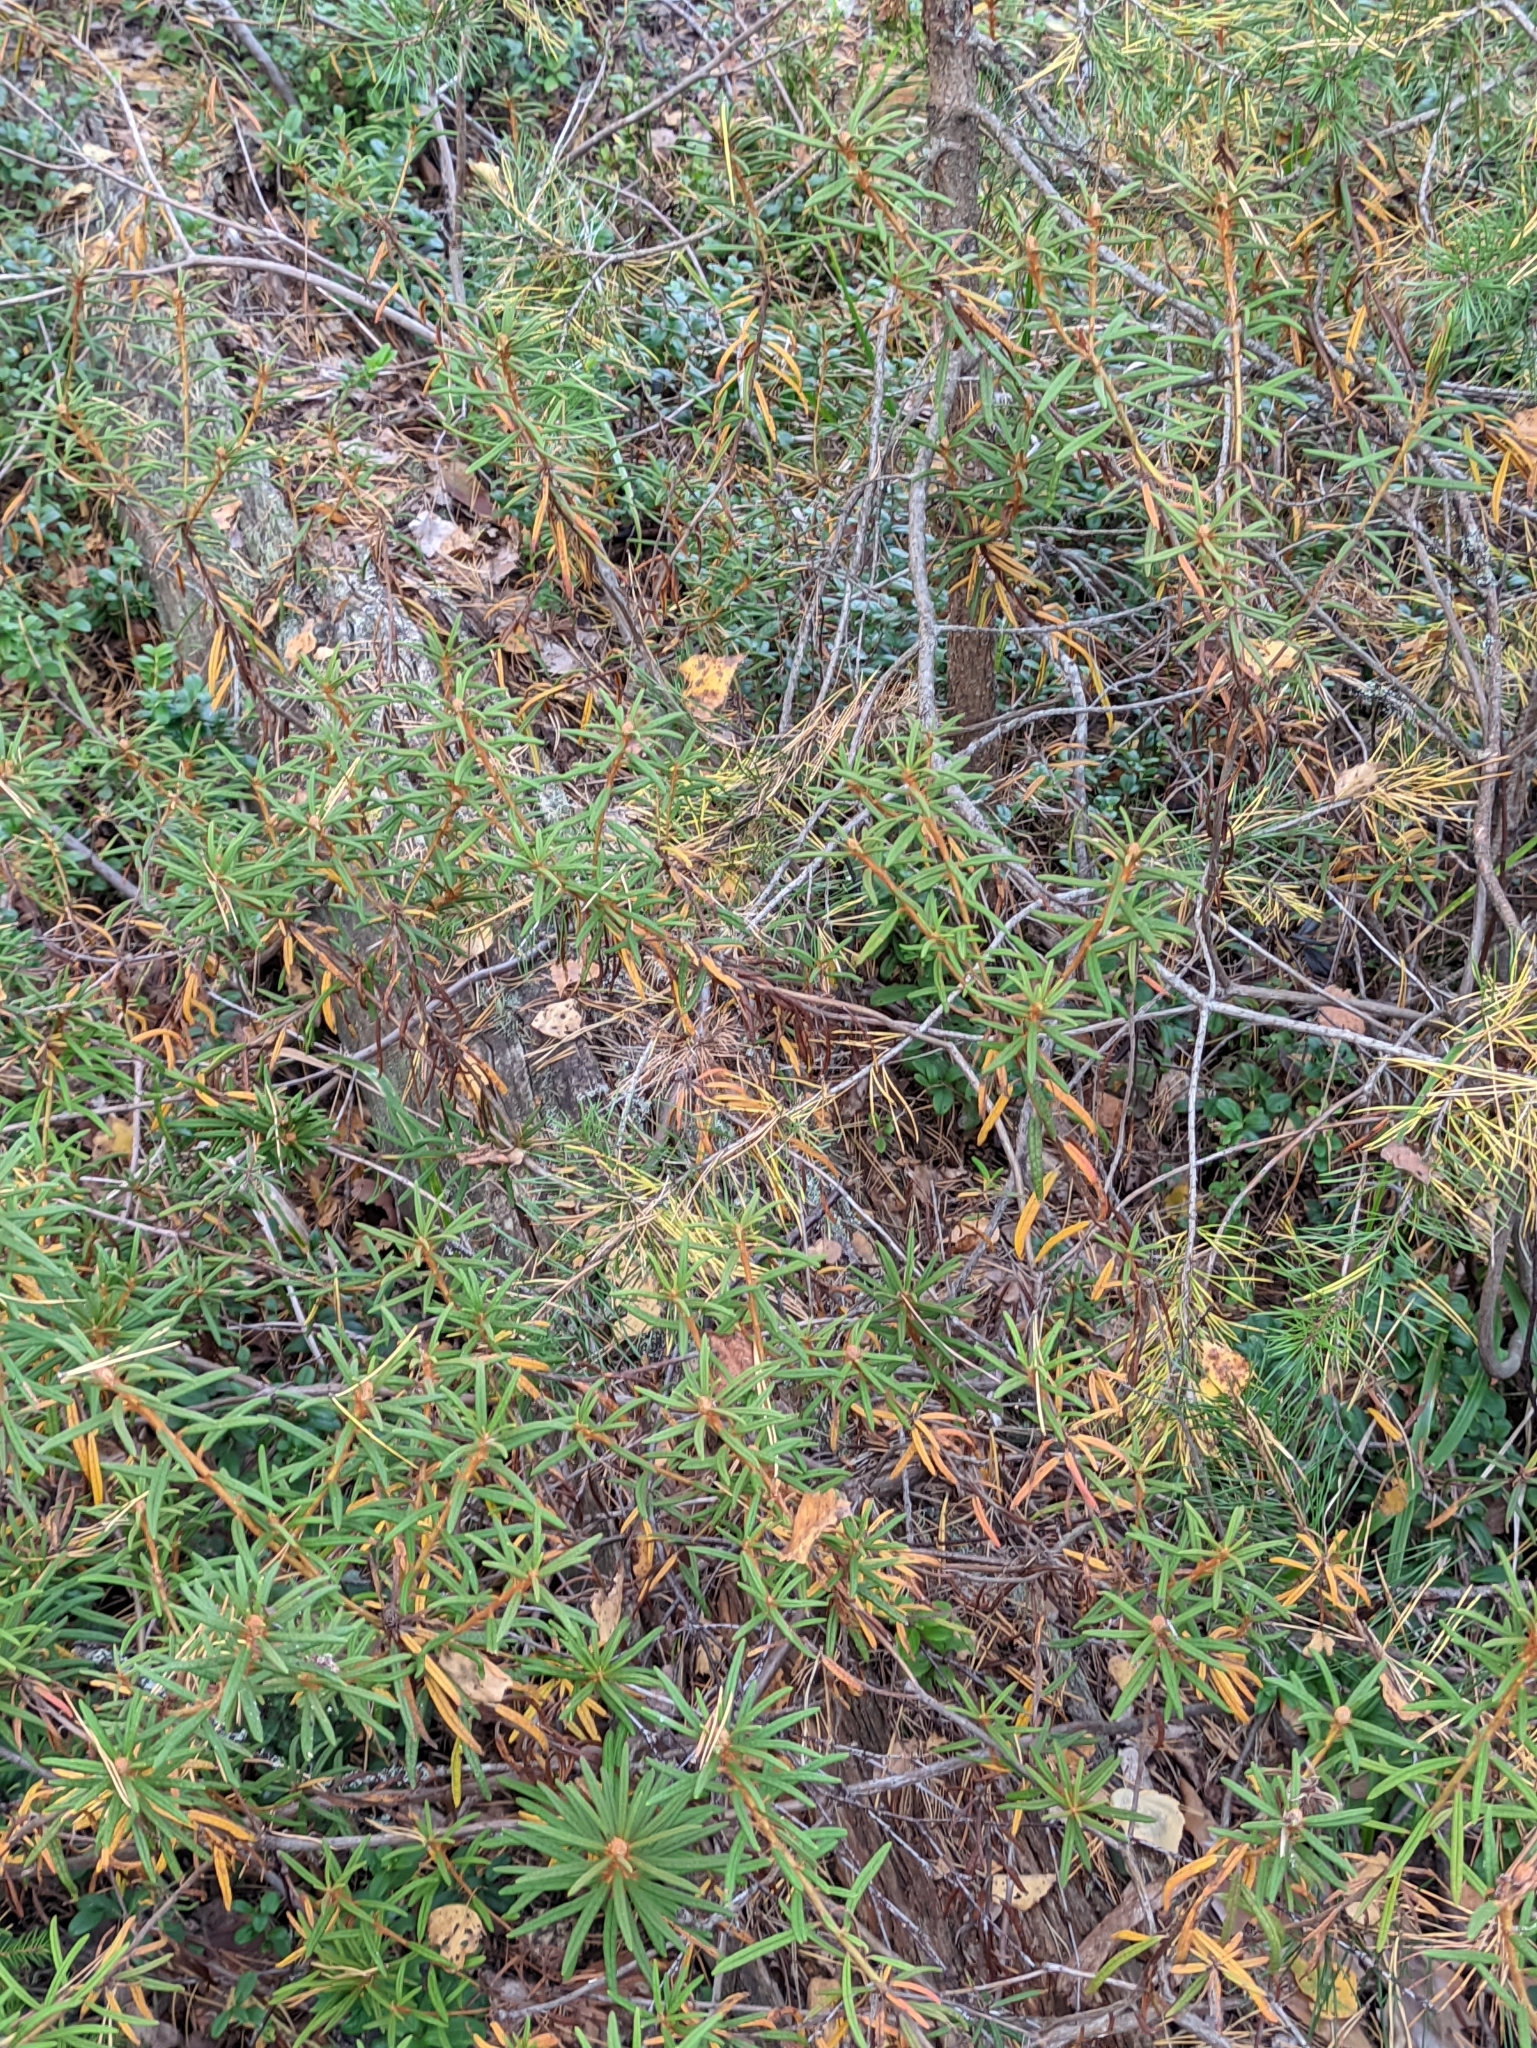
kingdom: Plantae
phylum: Tracheophyta
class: Magnoliopsida
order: Ericales
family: Ericaceae
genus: Rhododendron
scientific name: Rhododendron tomentosum
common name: Marsh labrador tea
